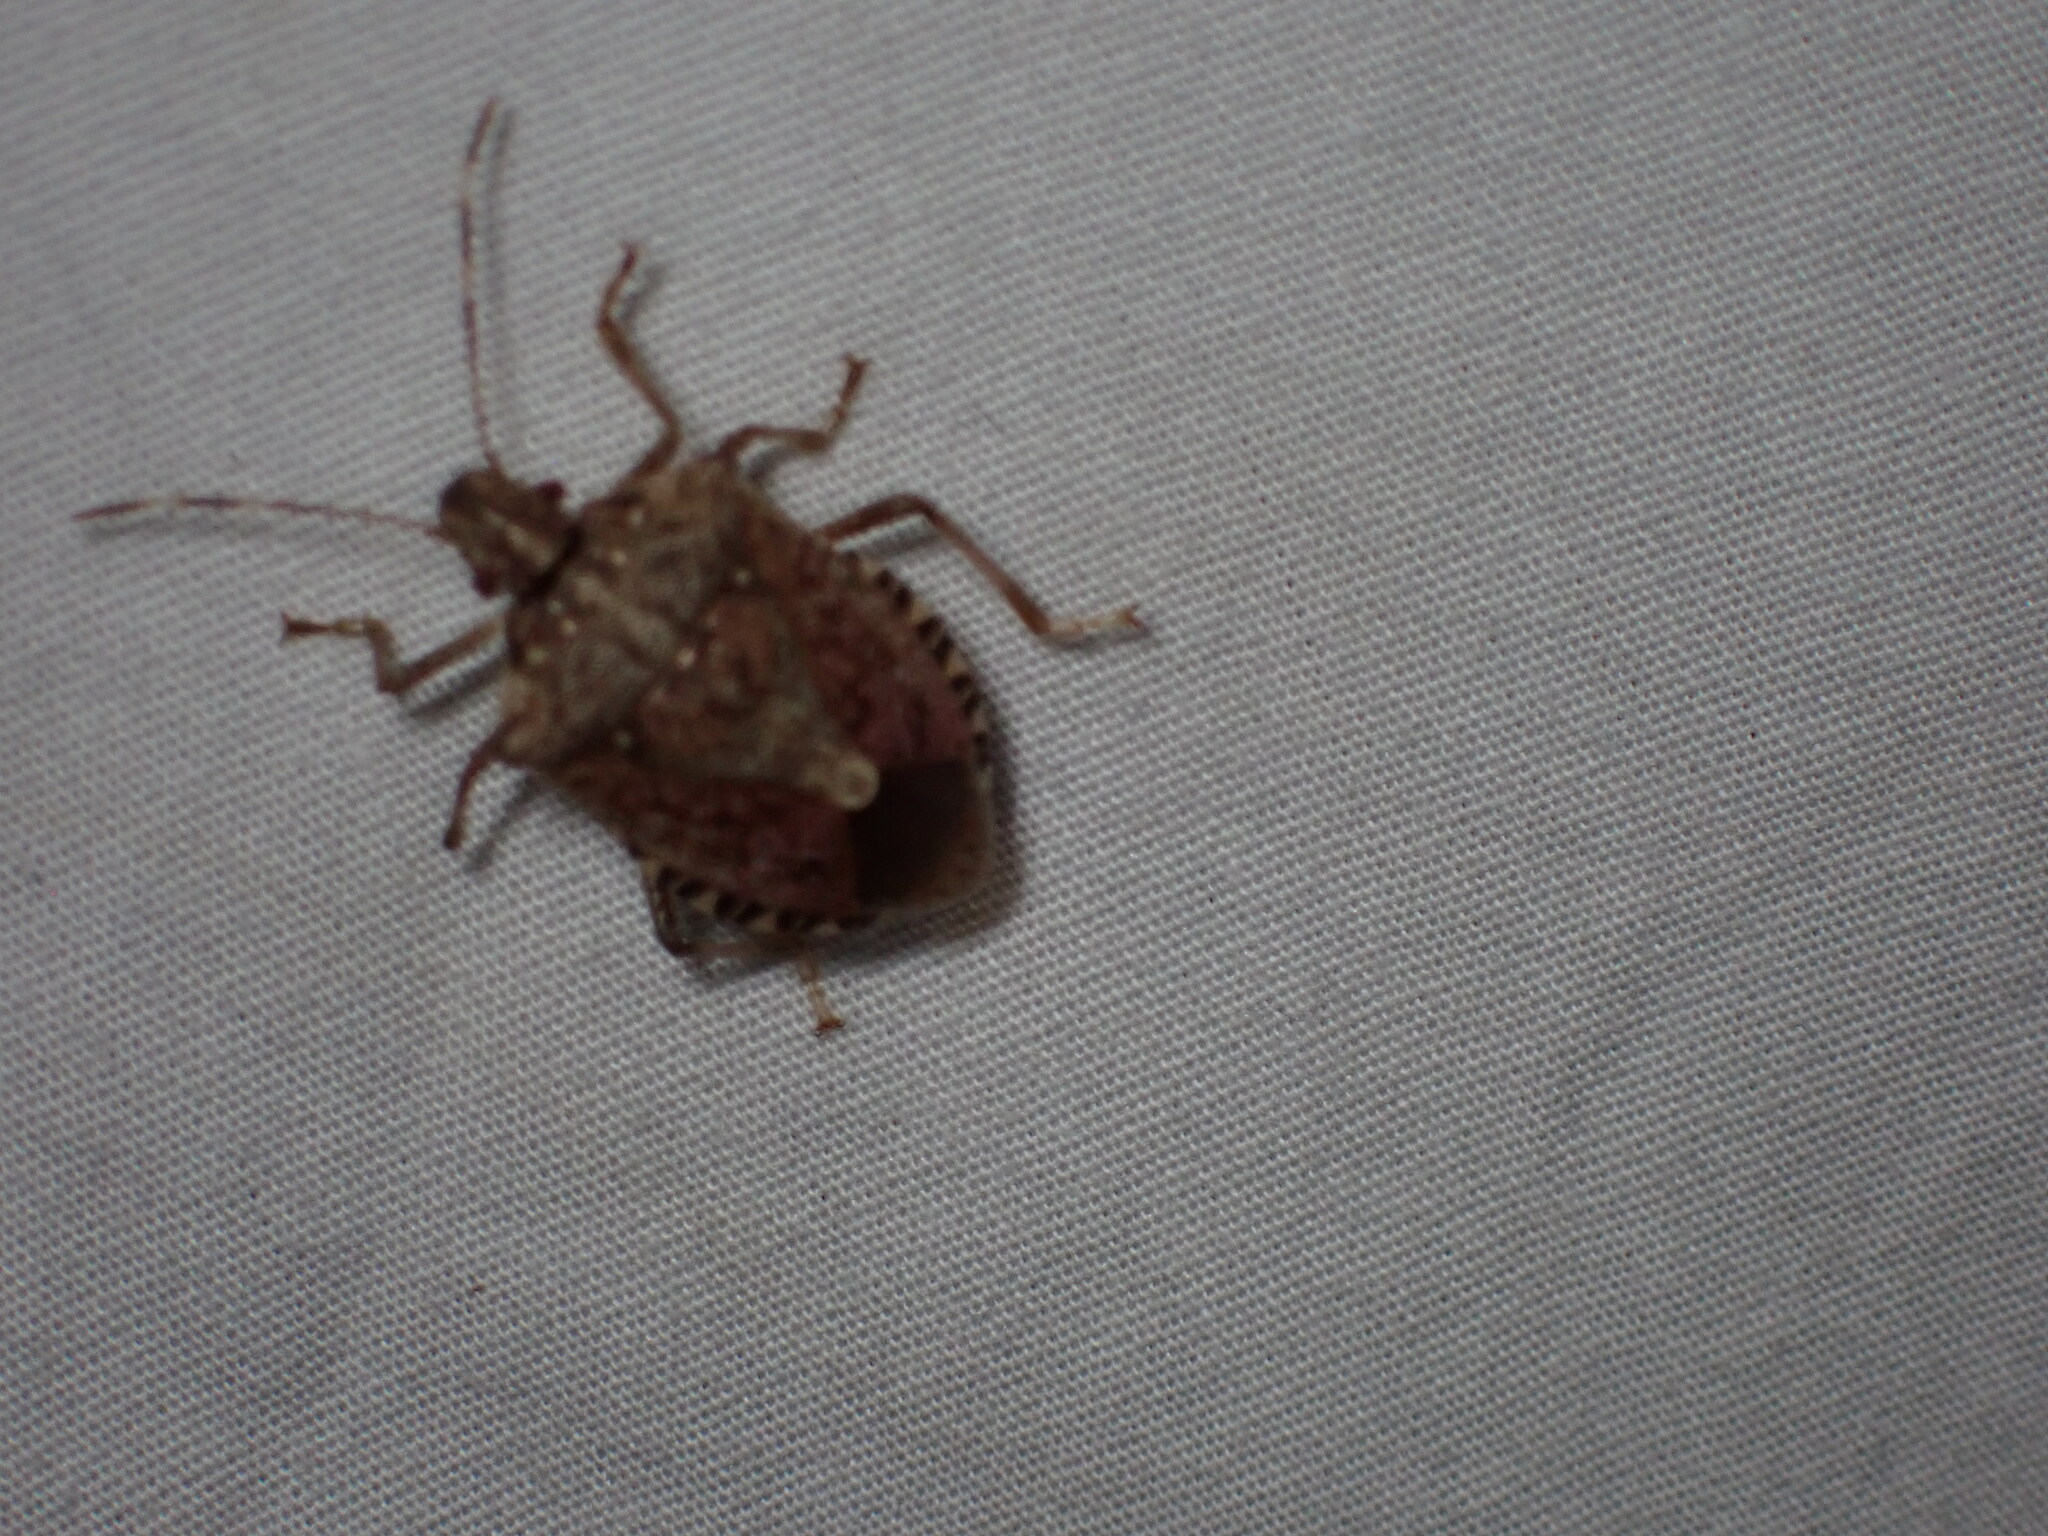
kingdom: Animalia
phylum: Arthropoda
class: Insecta
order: Hemiptera
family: Pentatomidae
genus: Halyomorpha
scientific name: Halyomorpha halys
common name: Brown marmorated stink bug
